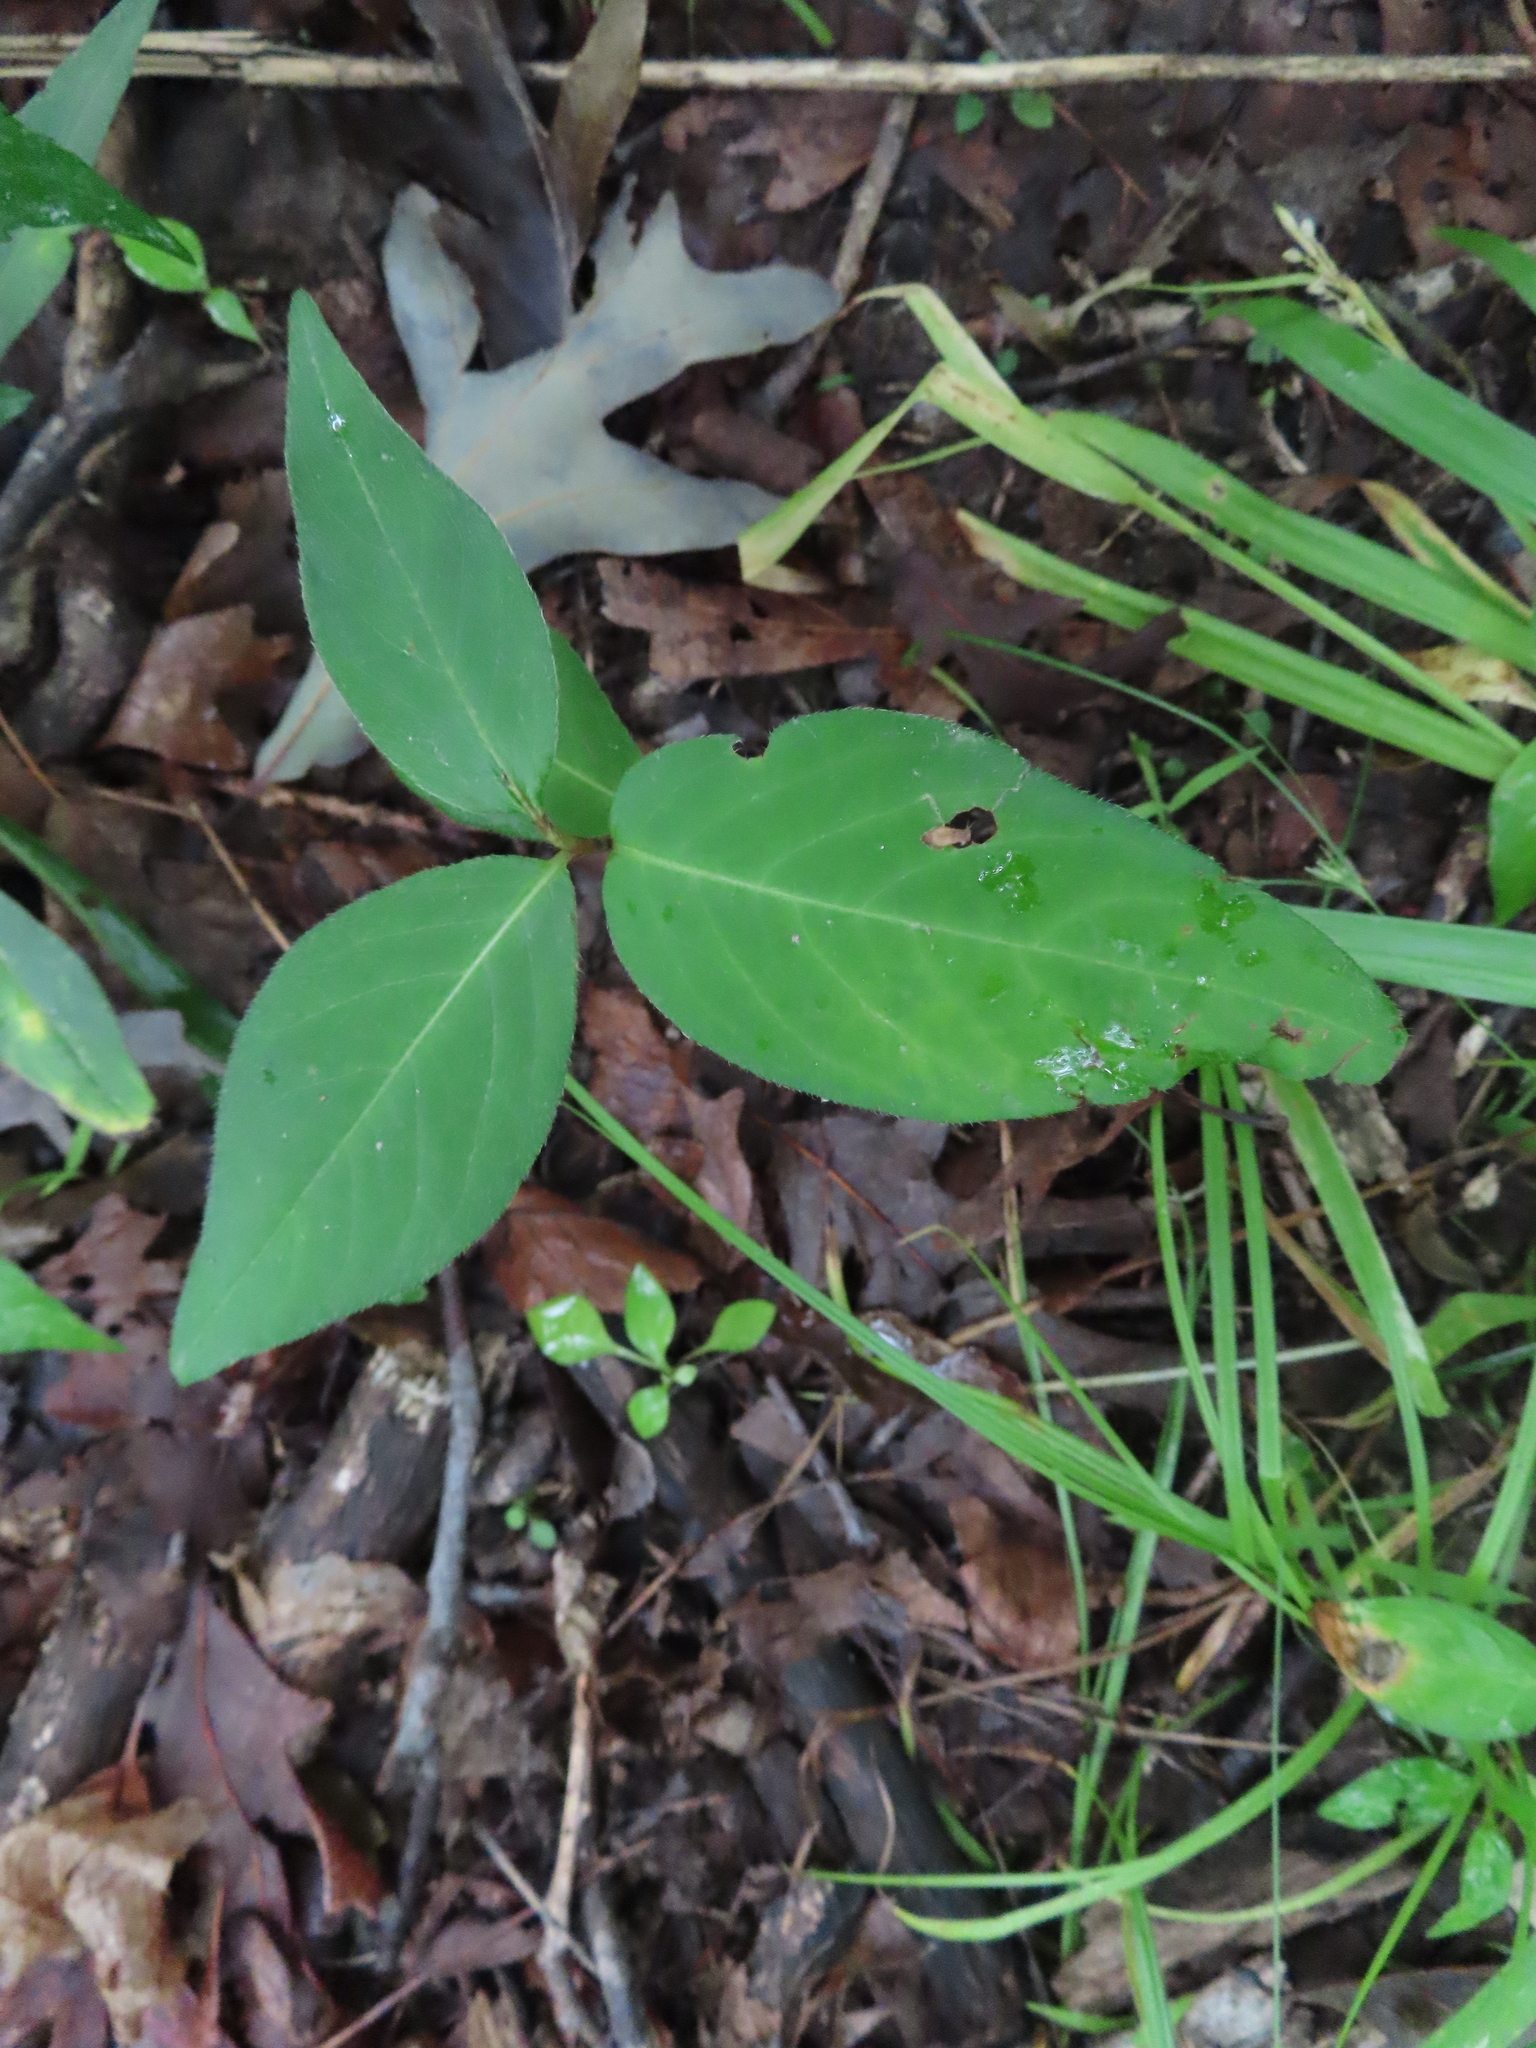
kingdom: Plantae
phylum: Tracheophyta
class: Magnoliopsida
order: Caryophyllales
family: Polygonaceae
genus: Persicaria
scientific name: Persicaria virginiana
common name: Jumpseed
